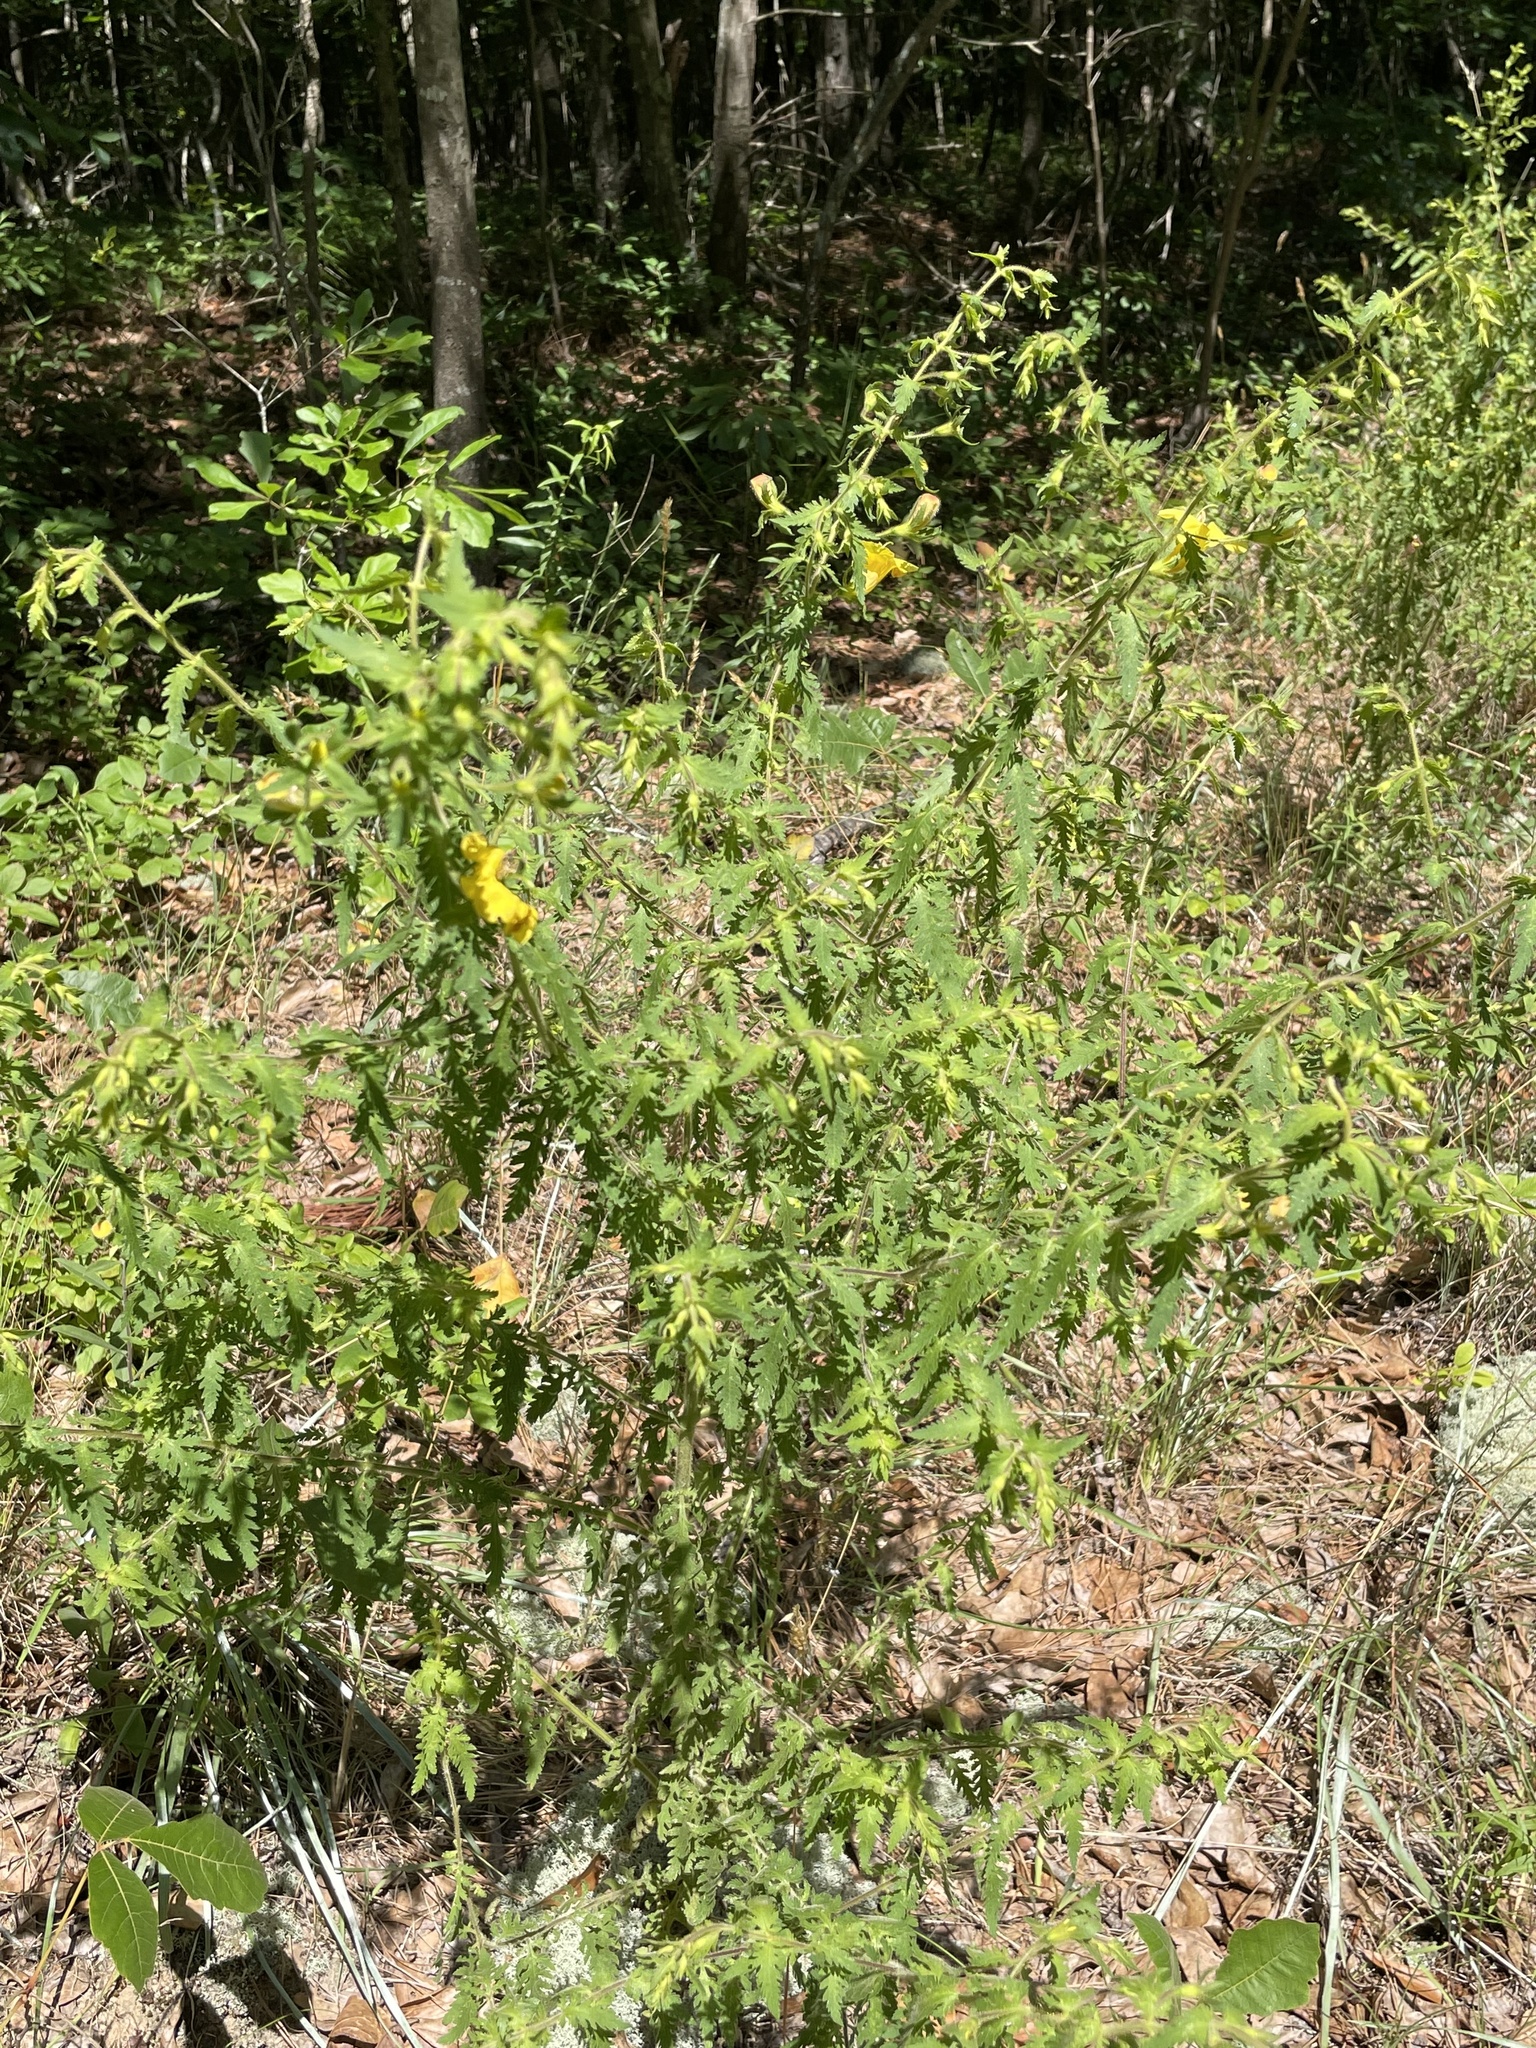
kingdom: Plantae
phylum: Tracheophyta
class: Magnoliopsida
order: Lamiales
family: Orobanchaceae
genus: Aureolaria
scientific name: Aureolaria pectinata
